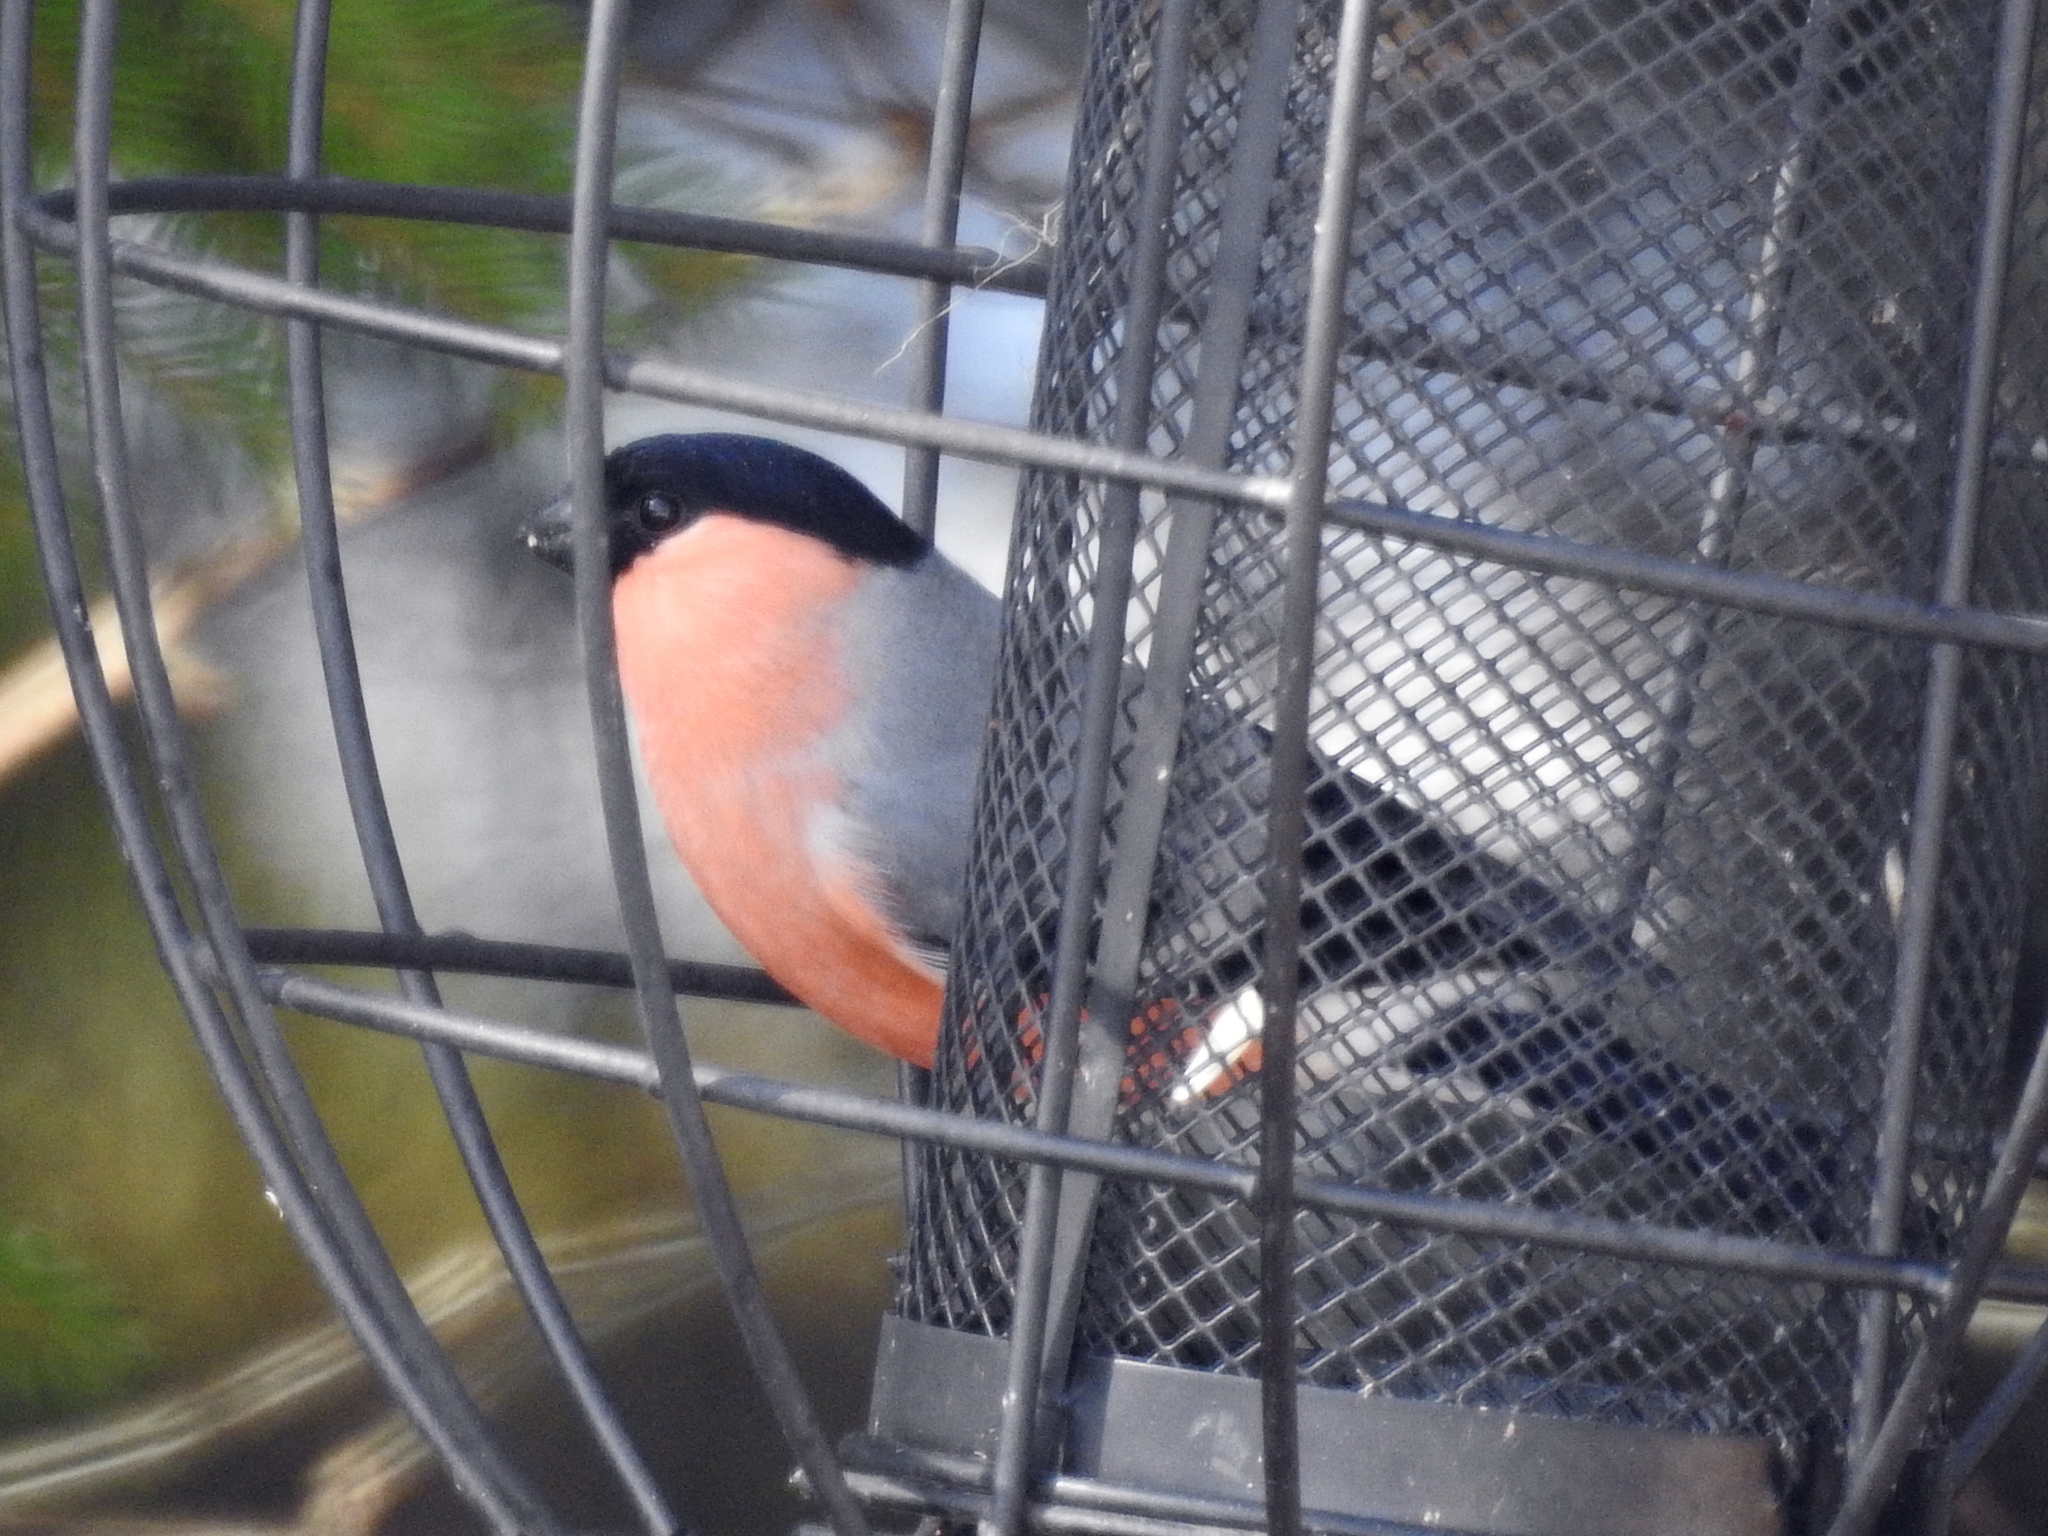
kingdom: Animalia
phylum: Chordata
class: Aves
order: Passeriformes
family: Fringillidae
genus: Pyrrhula
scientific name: Pyrrhula pyrrhula
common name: Eurasian bullfinch
